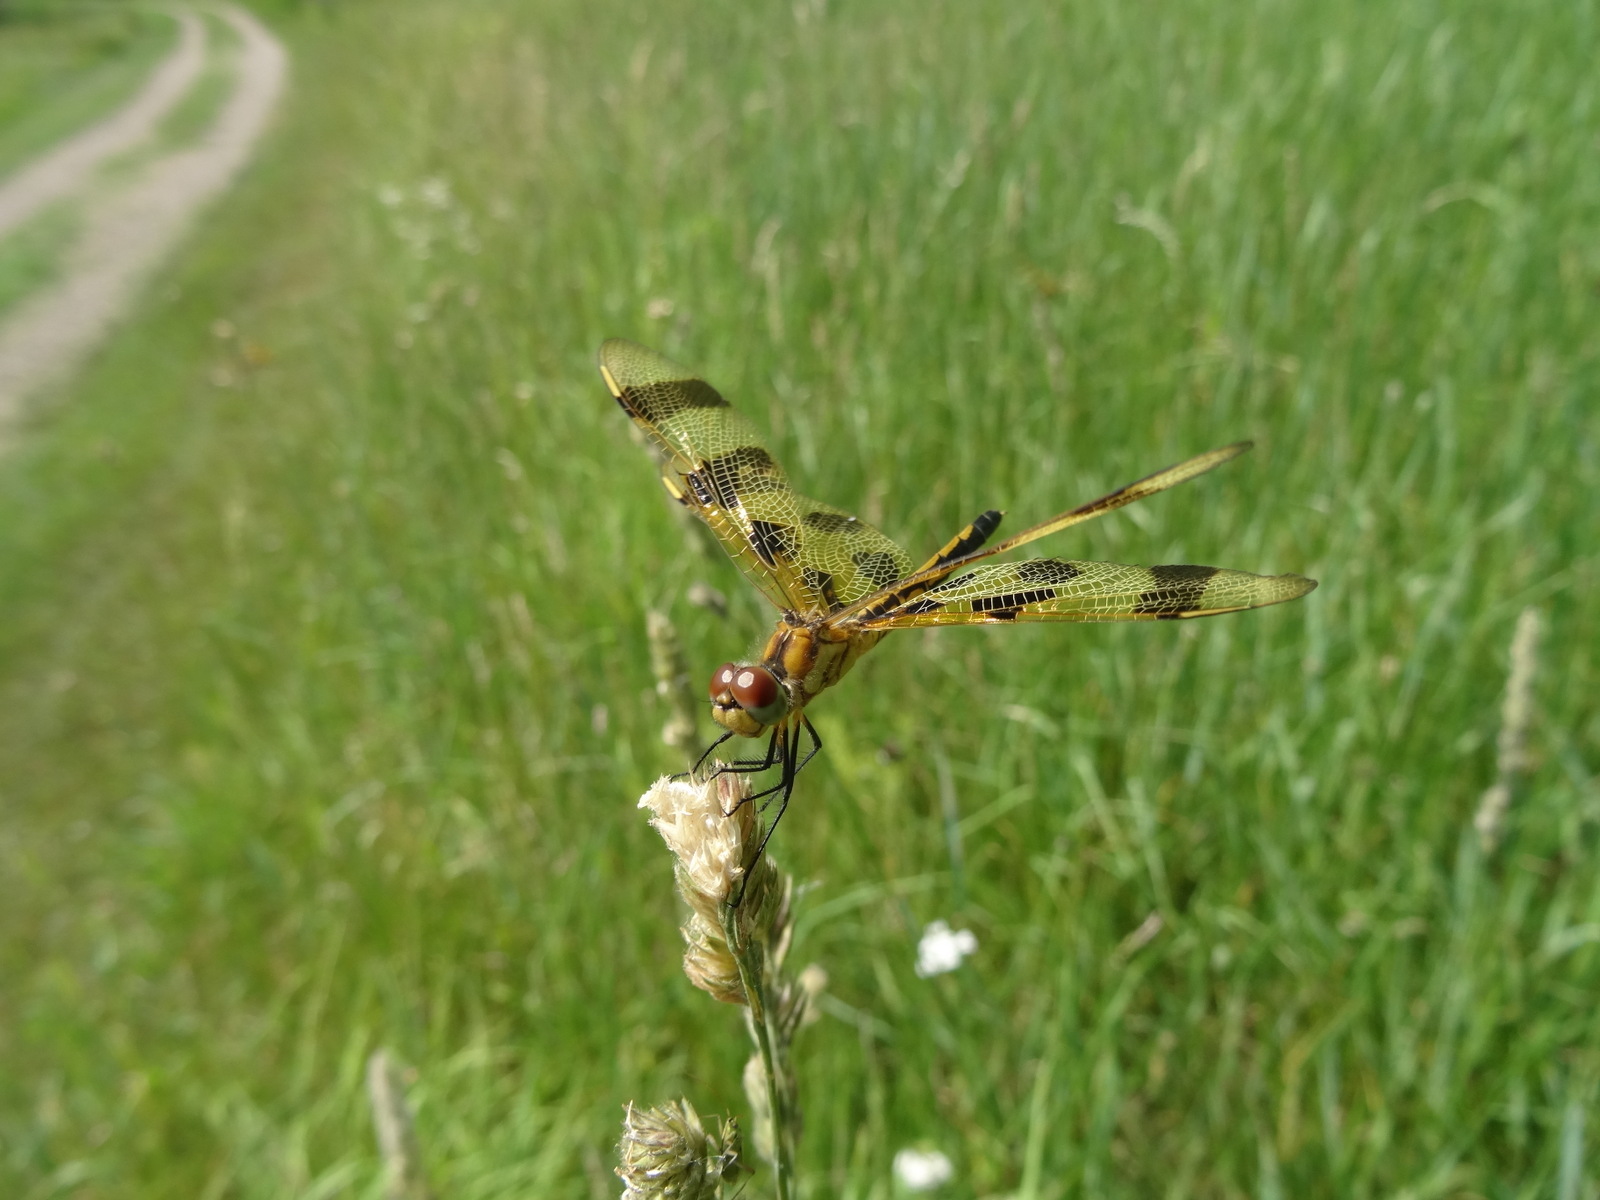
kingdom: Animalia
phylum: Arthropoda
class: Insecta
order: Odonata
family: Libellulidae
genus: Celithemis
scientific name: Celithemis eponina
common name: Halloween pennant
